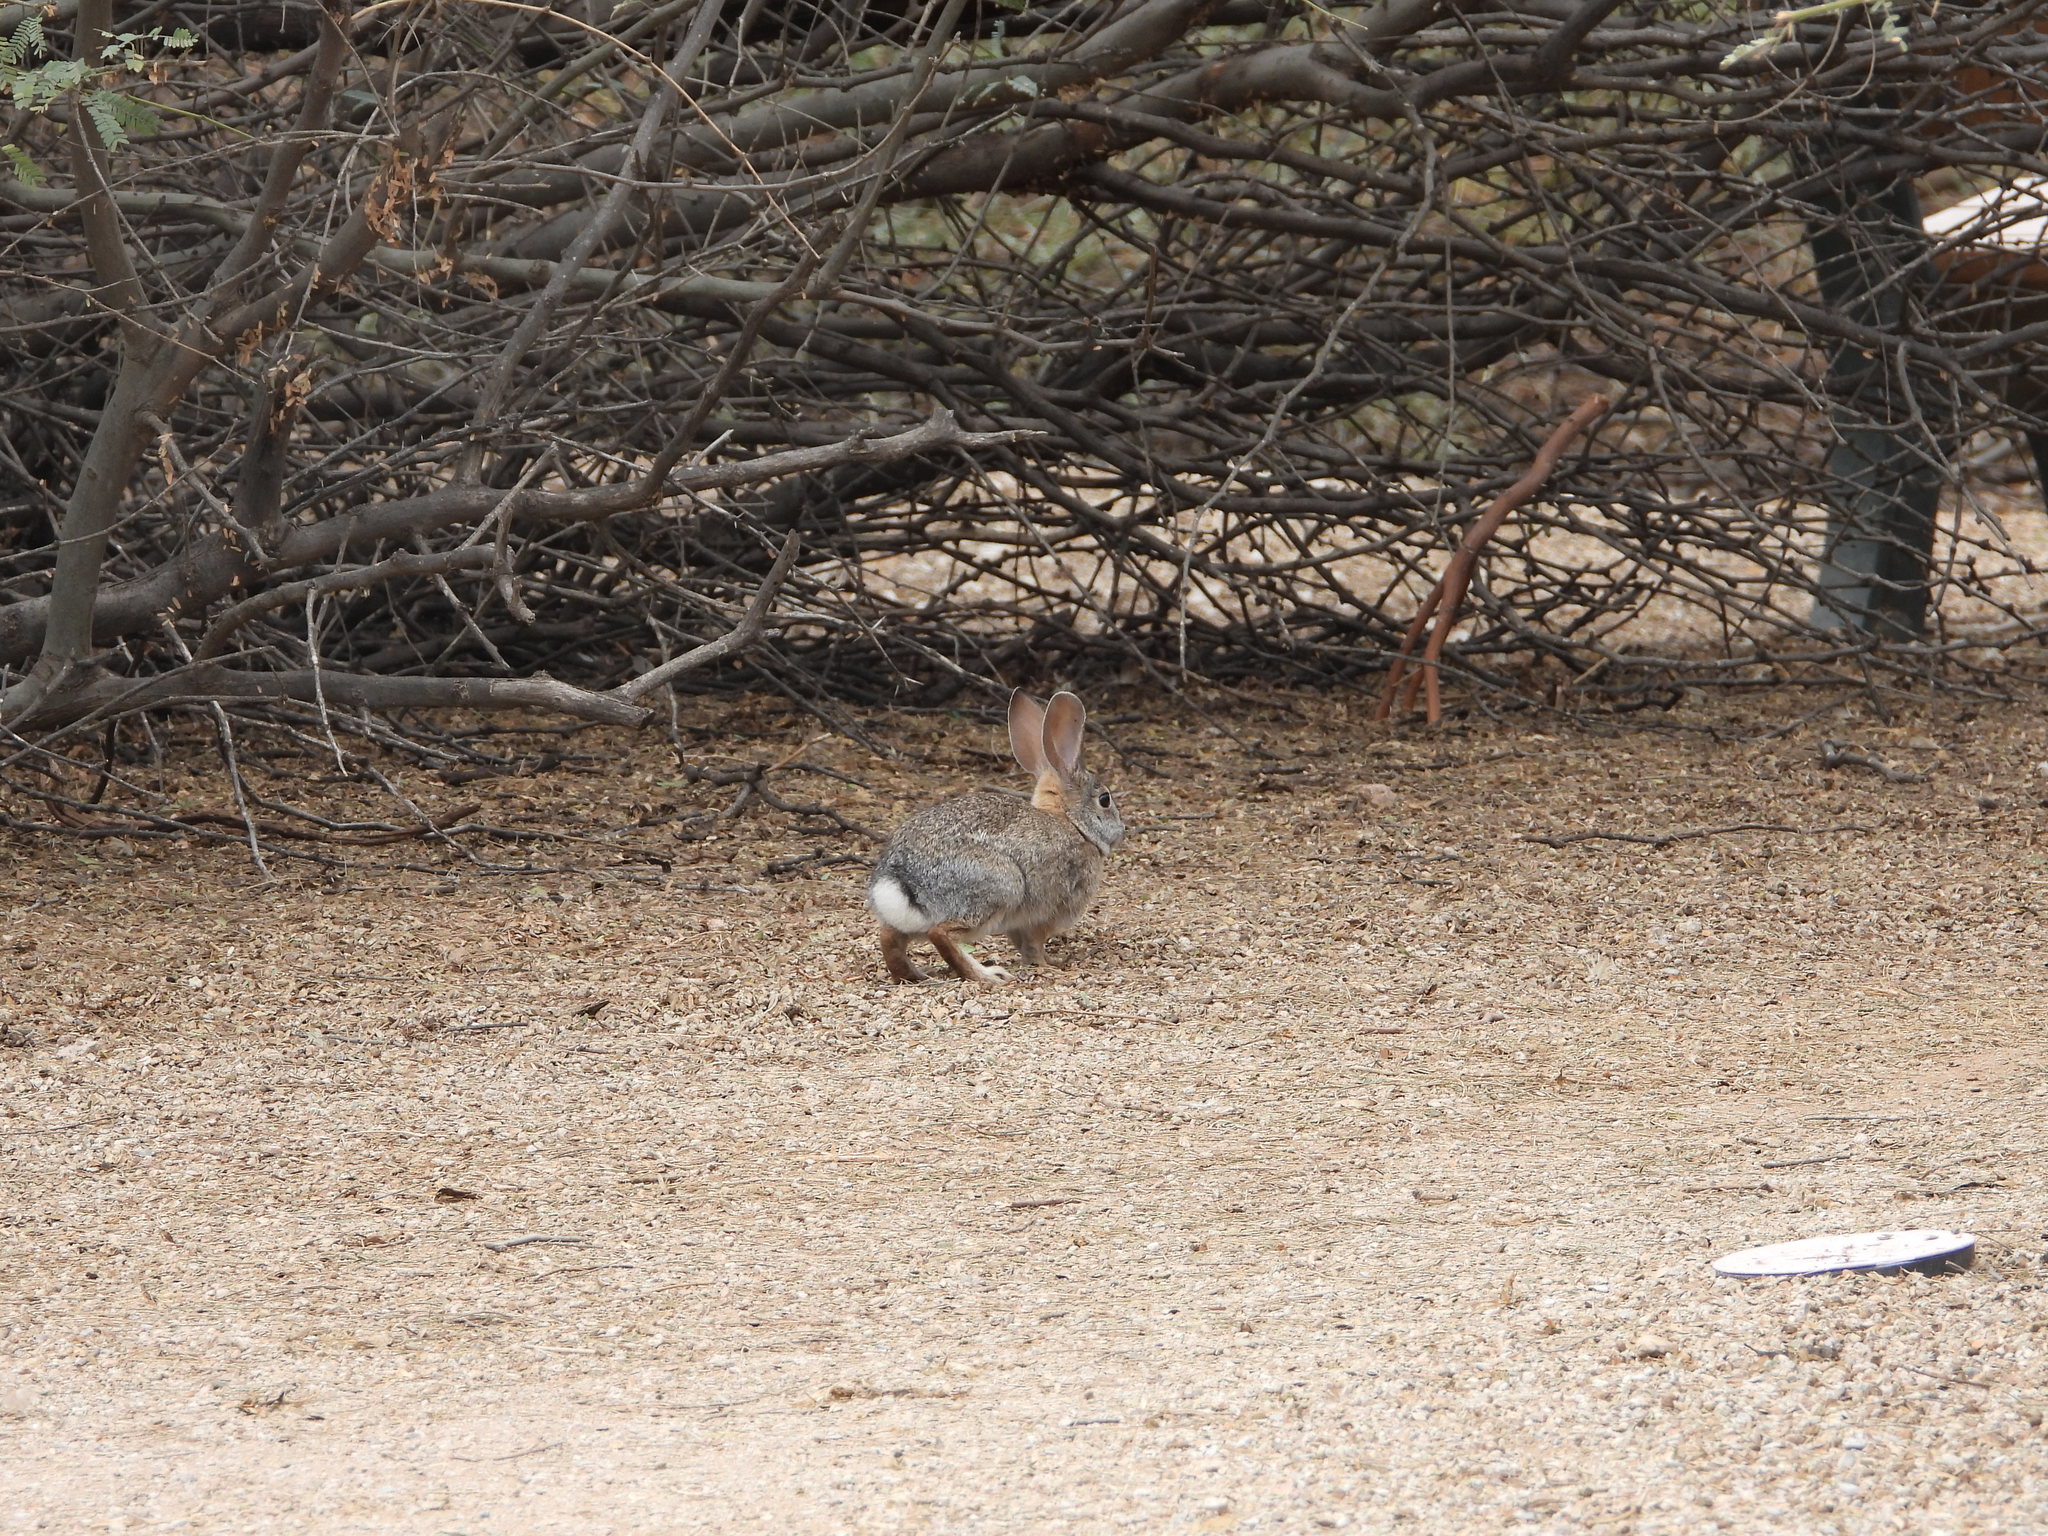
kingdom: Animalia
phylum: Chordata
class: Mammalia
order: Lagomorpha
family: Leporidae
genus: Sylvilagus
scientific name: Sylvilagus audubonii
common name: Desert cottontail
